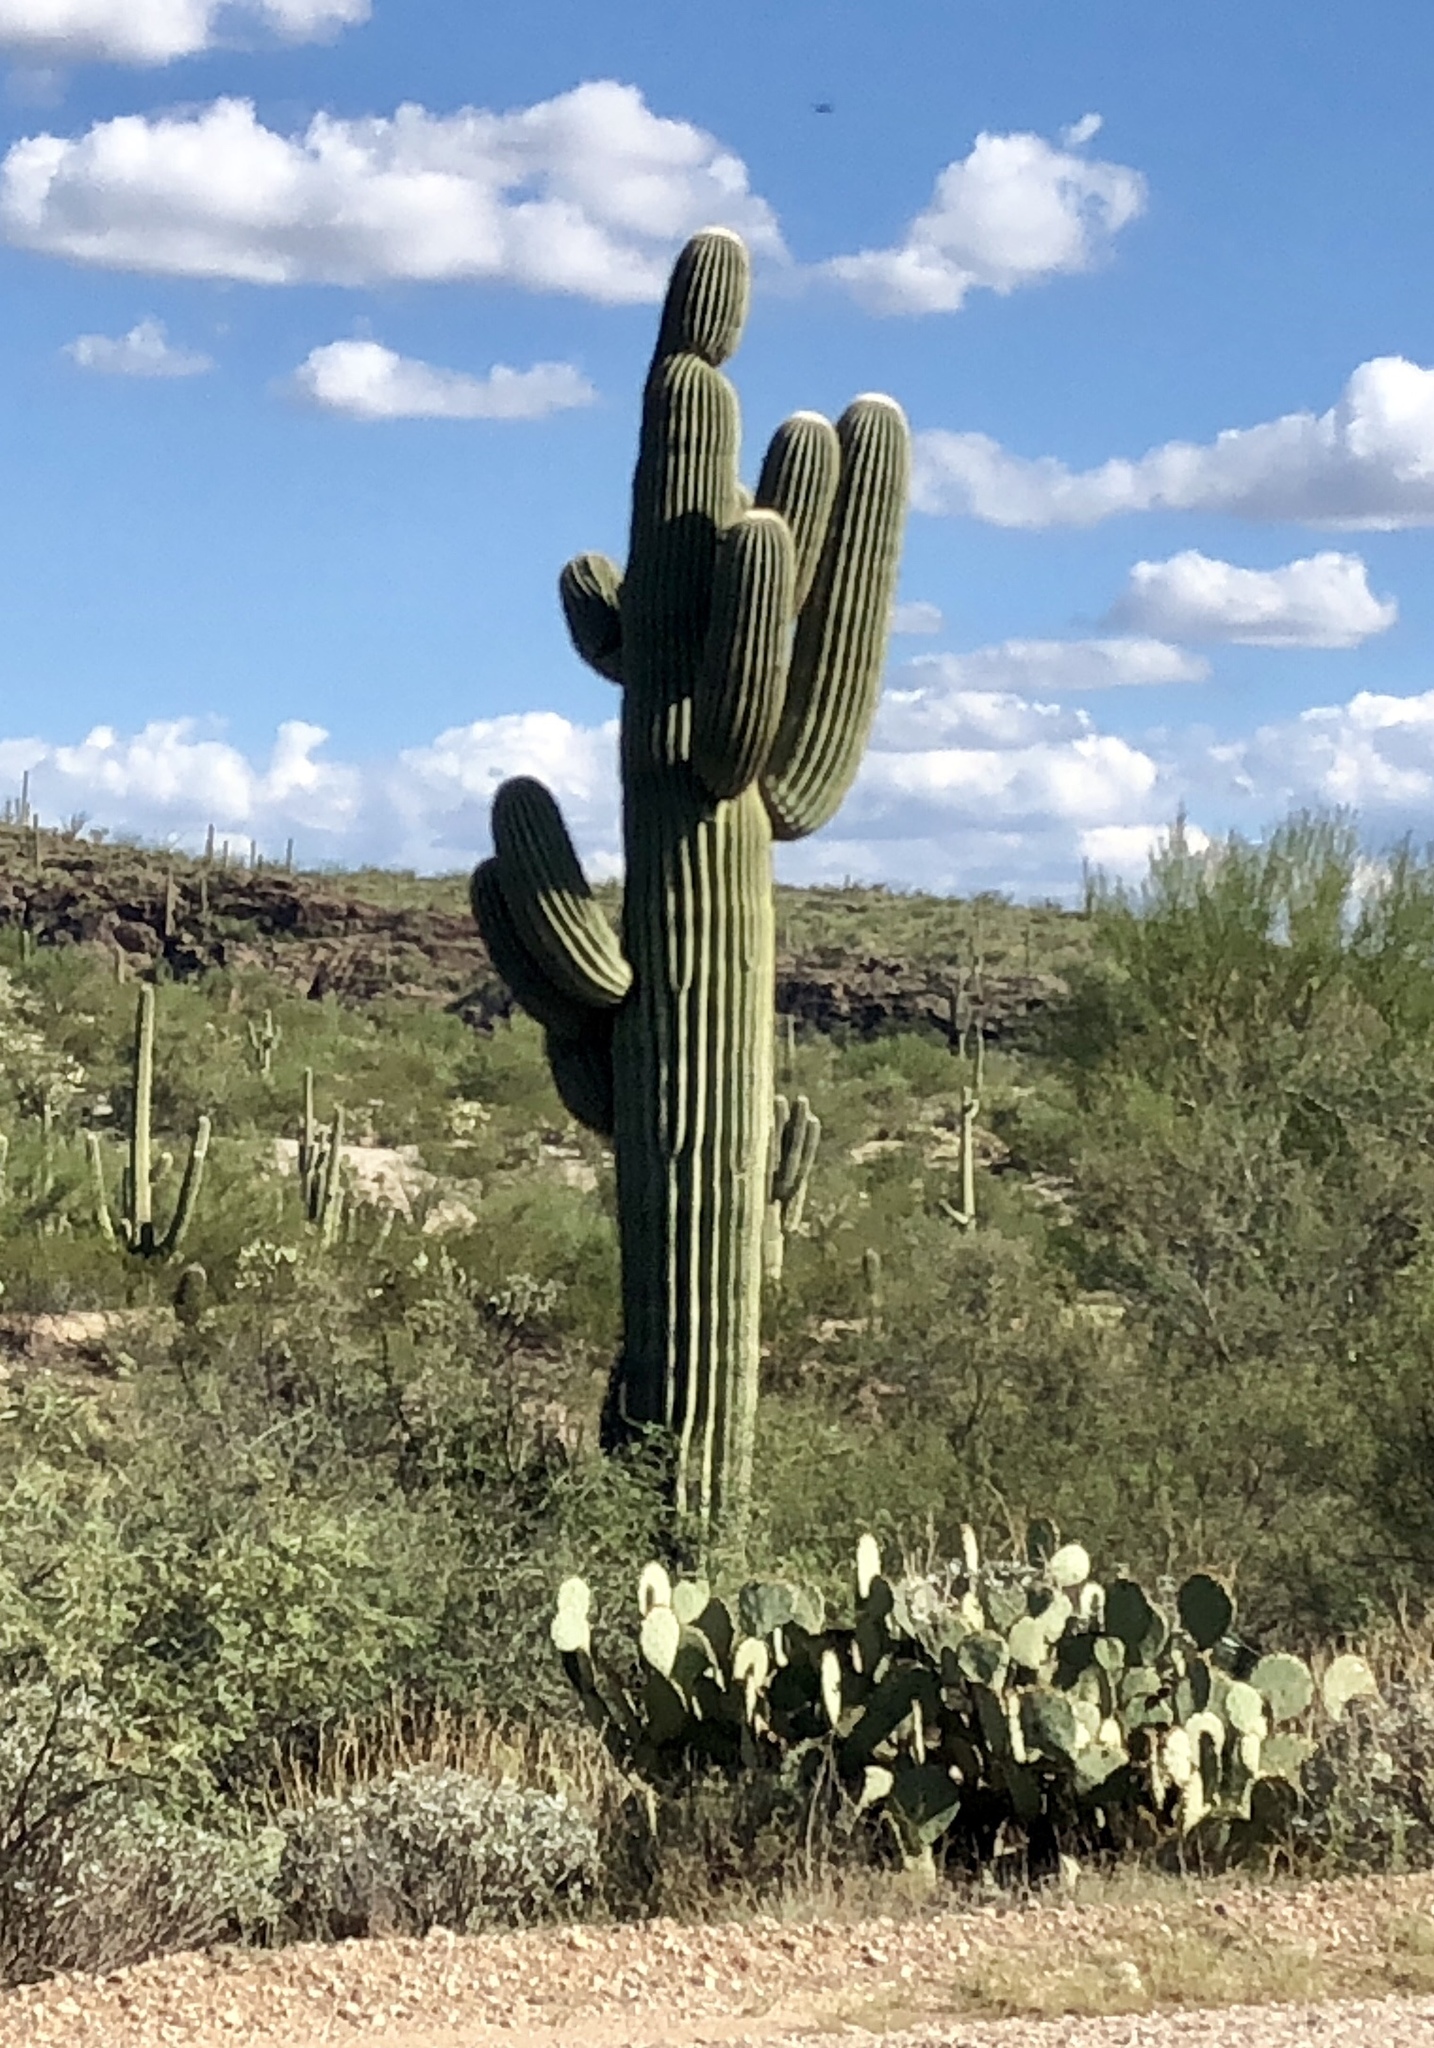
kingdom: Plantae
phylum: Tracheophyta
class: Magnoliopsida
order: Caryophyllales
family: Cactaceae
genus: Carnegiea
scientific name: Carnegiea gigantea
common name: Saguaro
